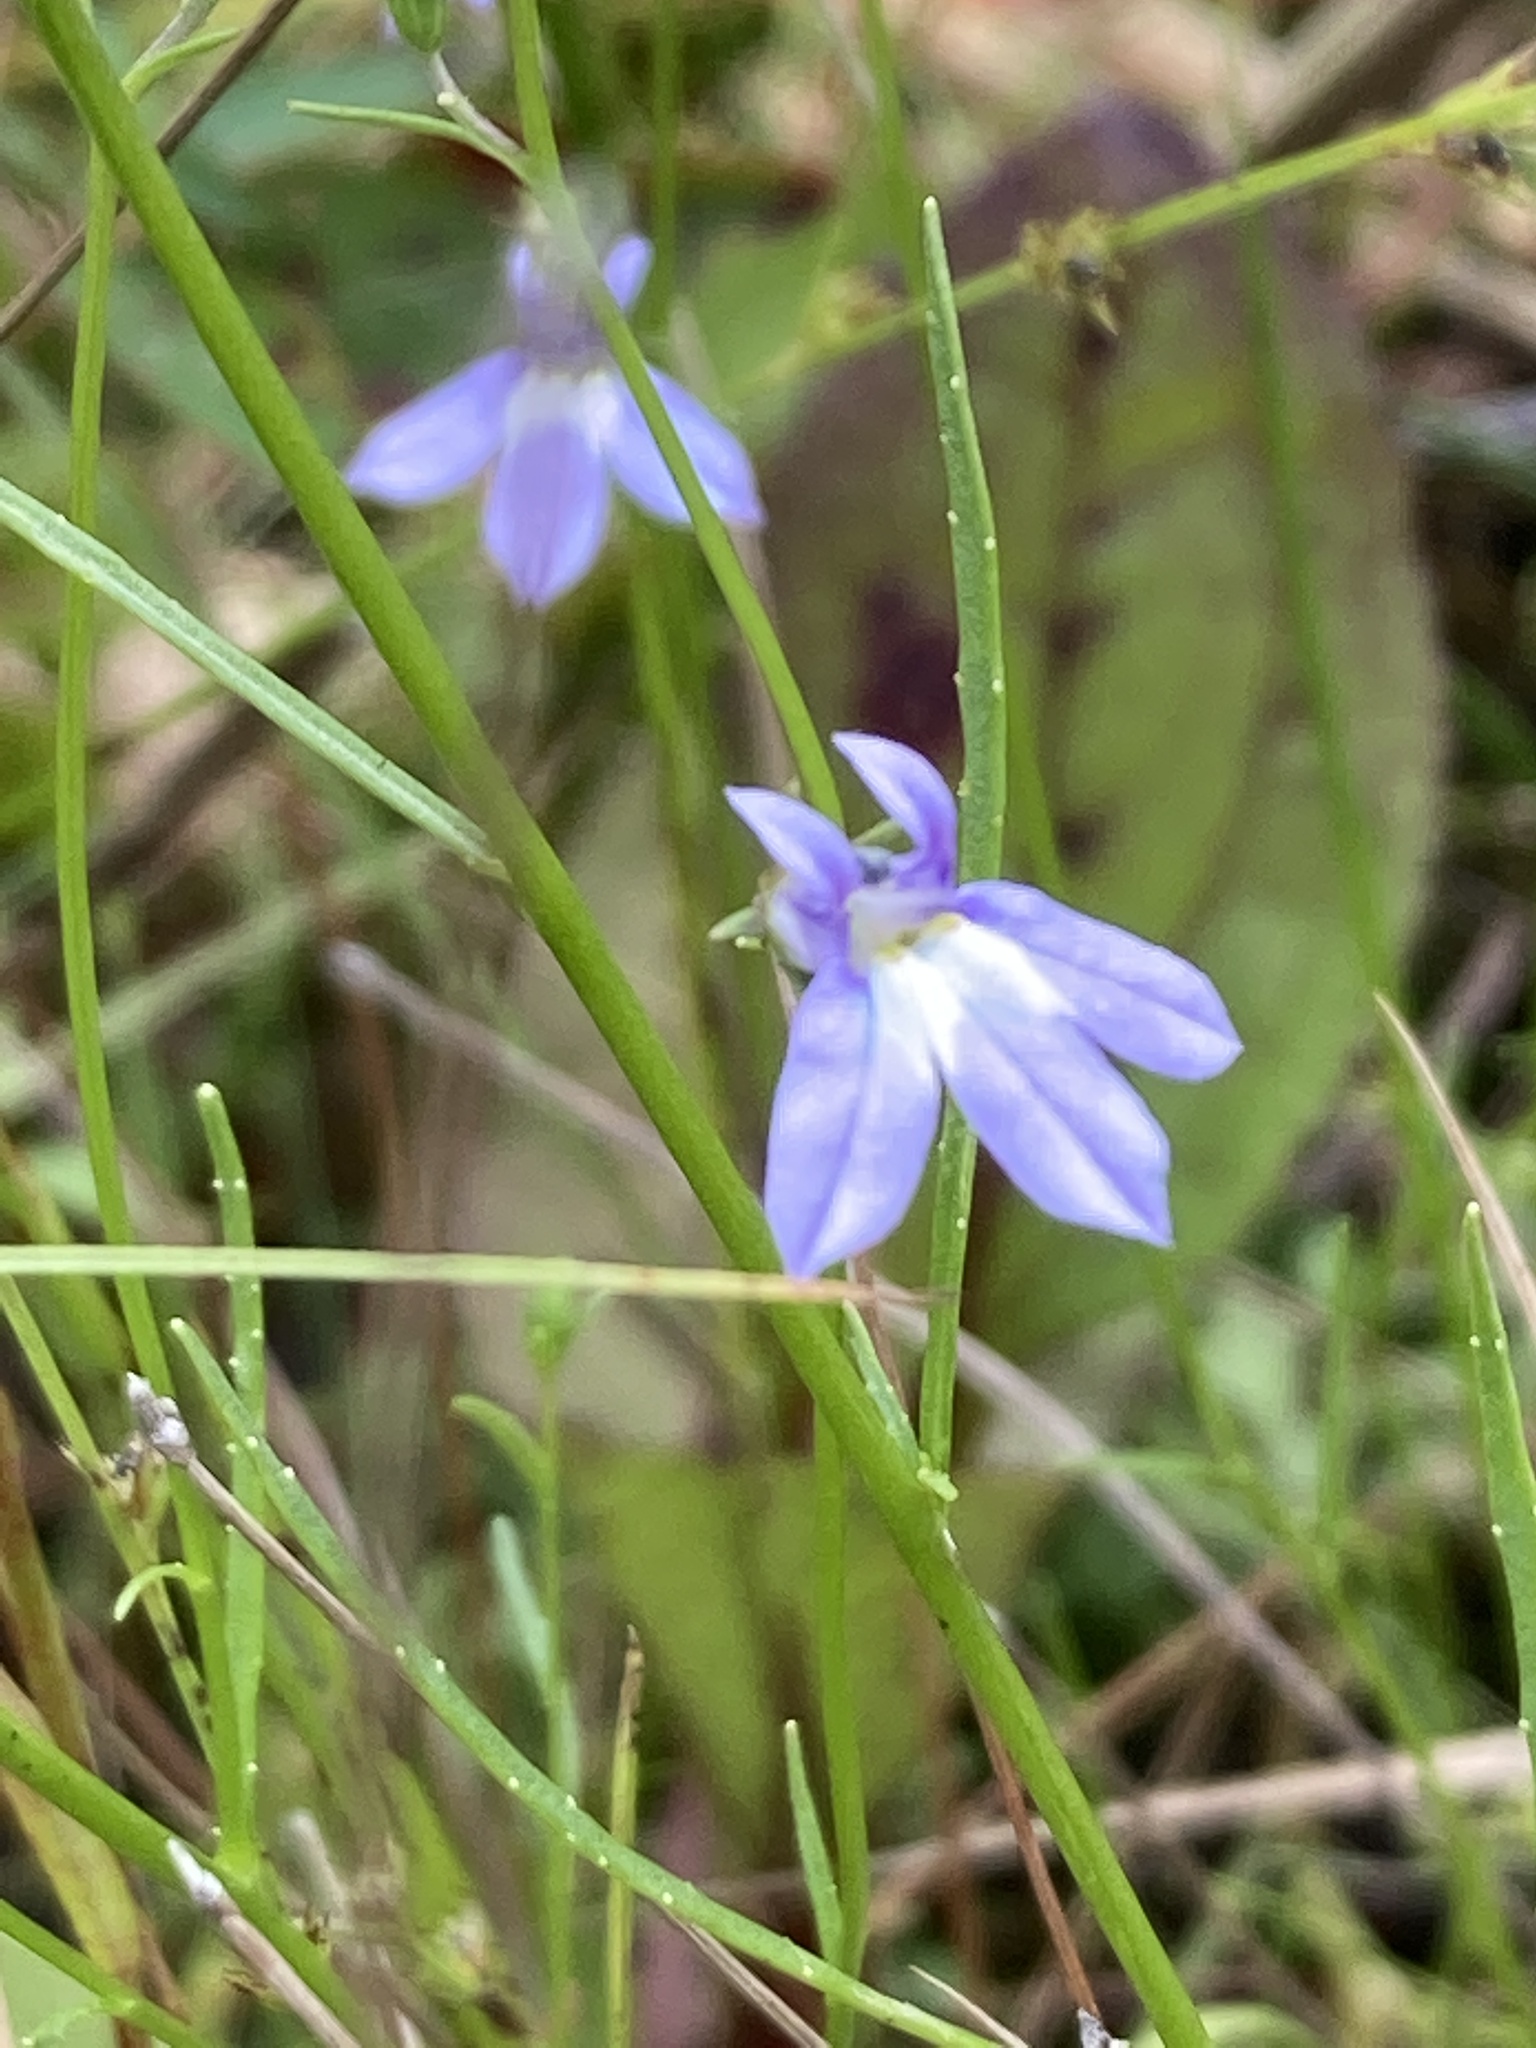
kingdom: Plantae
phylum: Tracheophyta
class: Magnoliopsida
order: Asterales
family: Campanulaceae
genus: Lobelia
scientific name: Lobelia kalmii
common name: Kalm's lobelia
